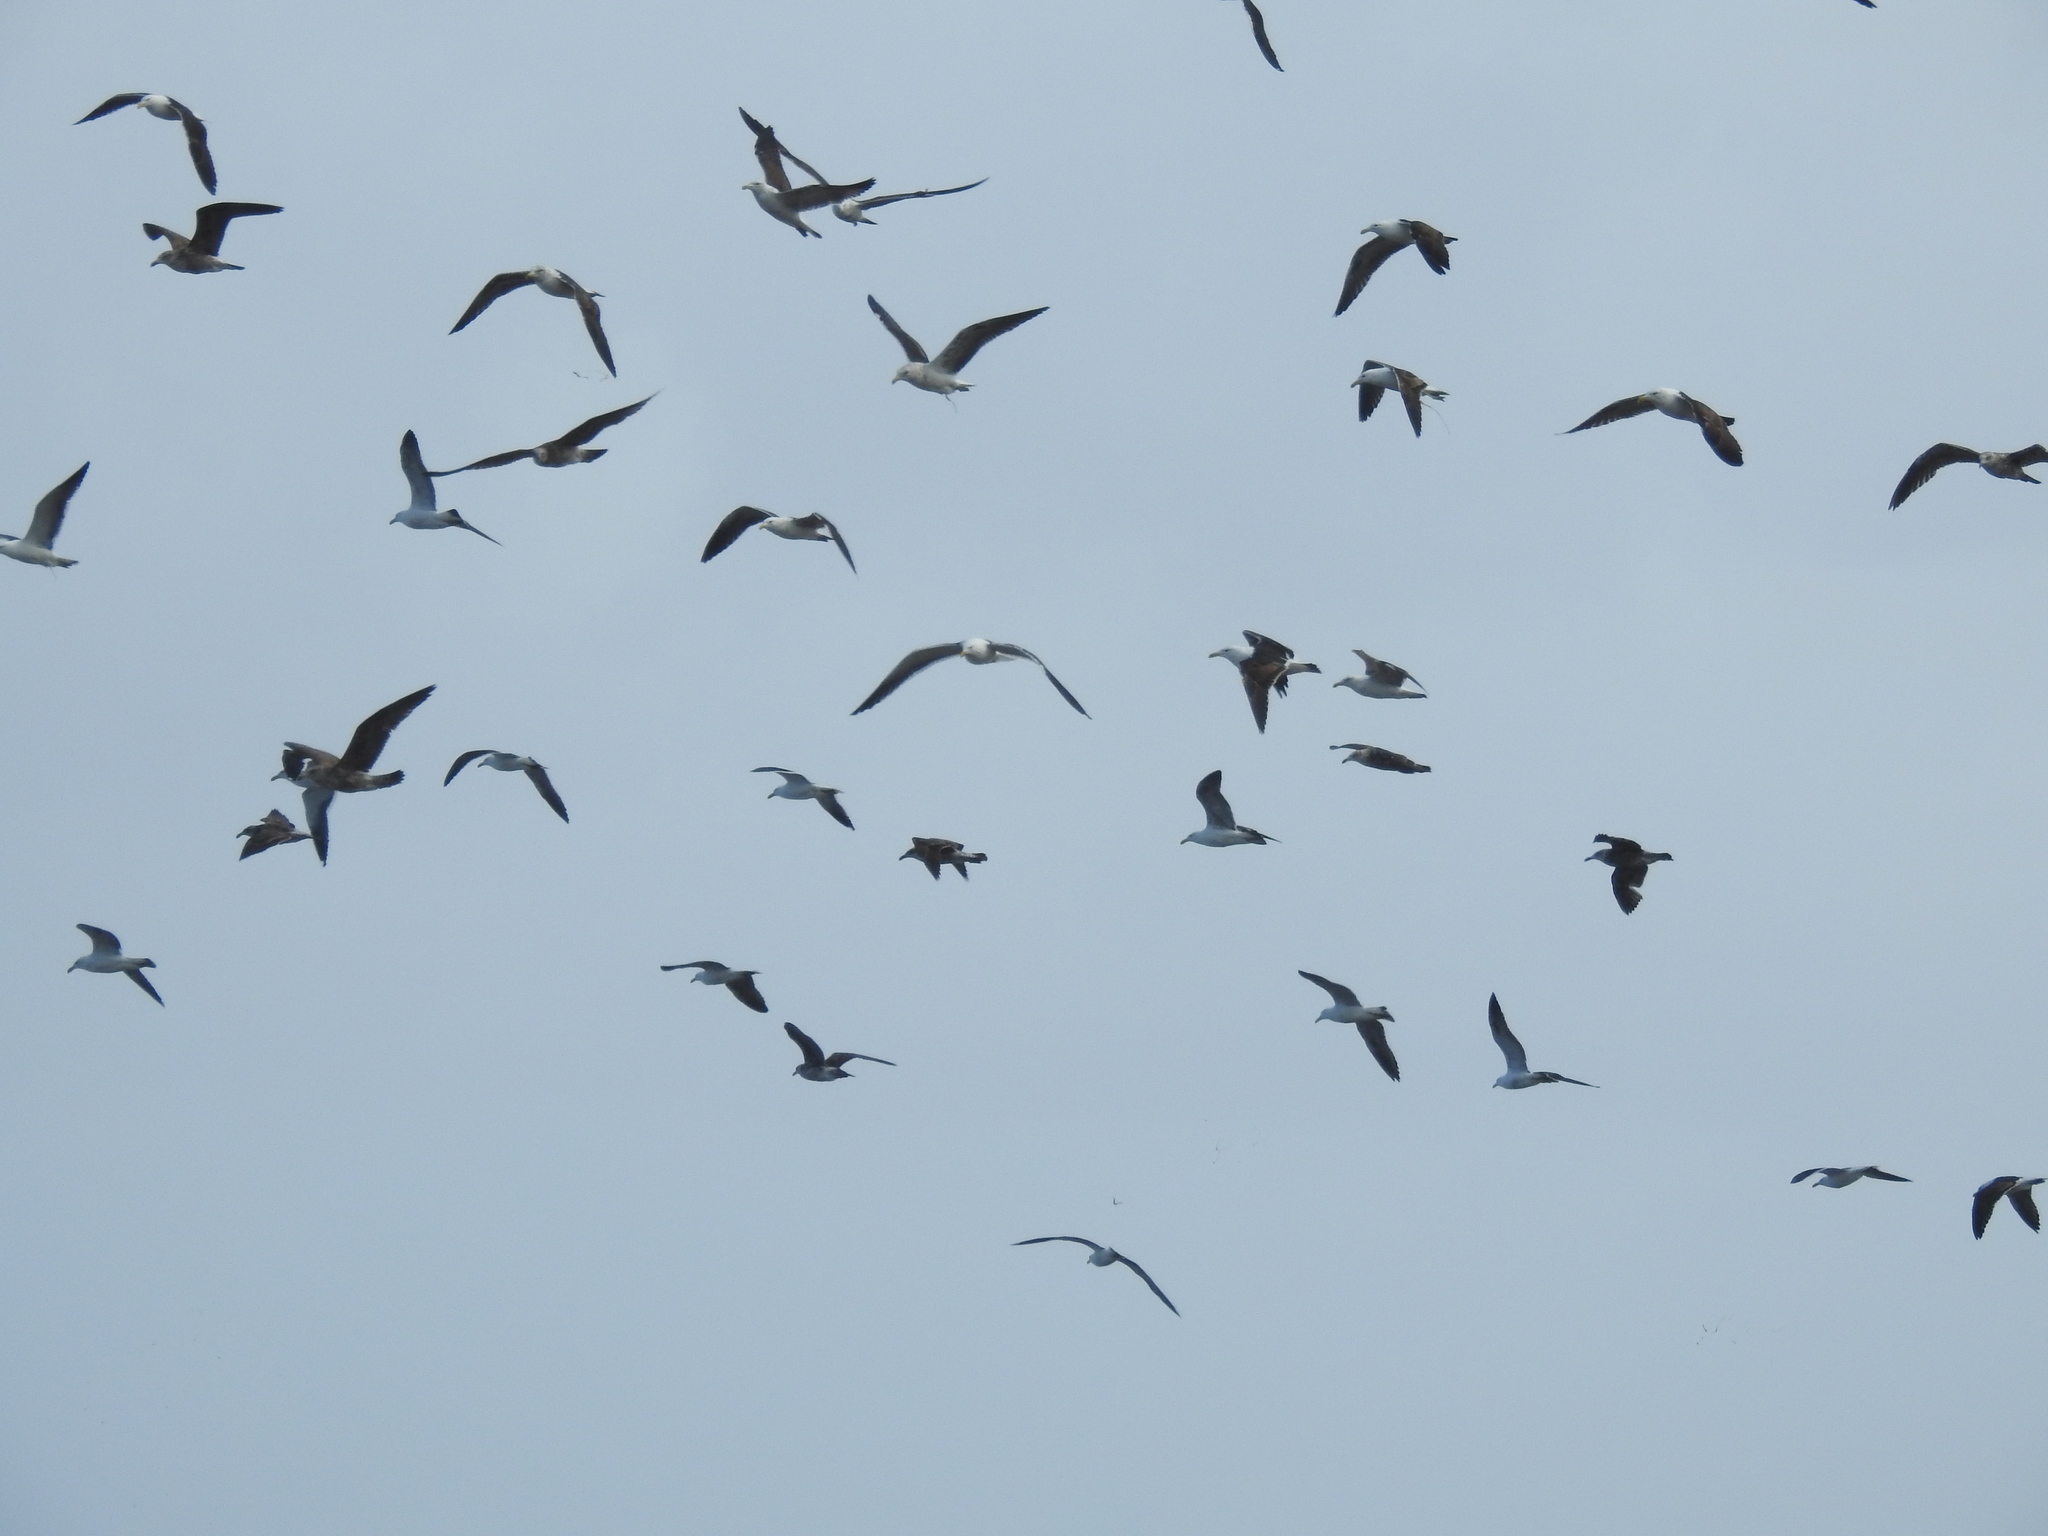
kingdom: Animalia
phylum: Chordata
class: Aves
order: Charadriiformes
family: Laridae
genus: Larus
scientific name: Larus dominicanus
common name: Kelp gull
